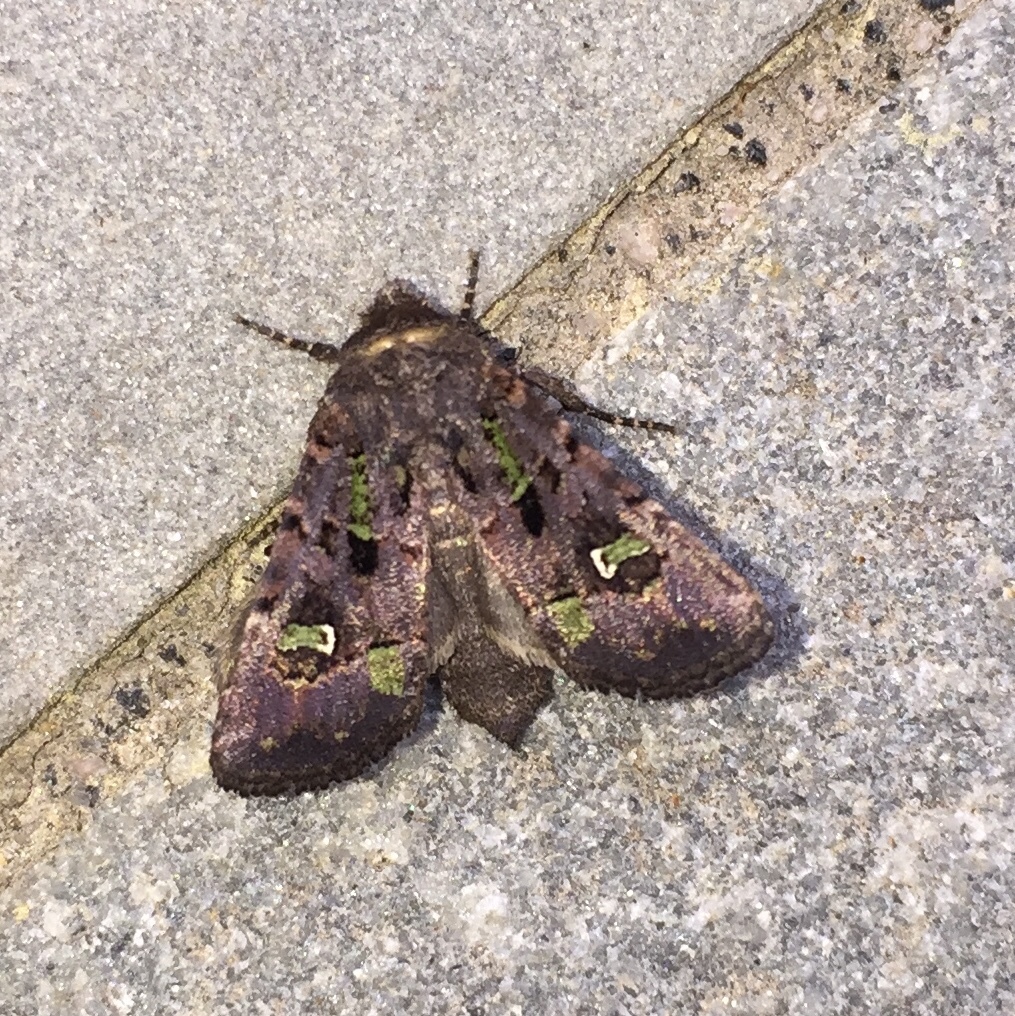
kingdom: Animalia
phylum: Arthropoda
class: Insecta
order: Lepidoptera
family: Noctuidae
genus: Lacinipolia
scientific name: Lacinipolia renigera
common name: Kidney-spotted minor
